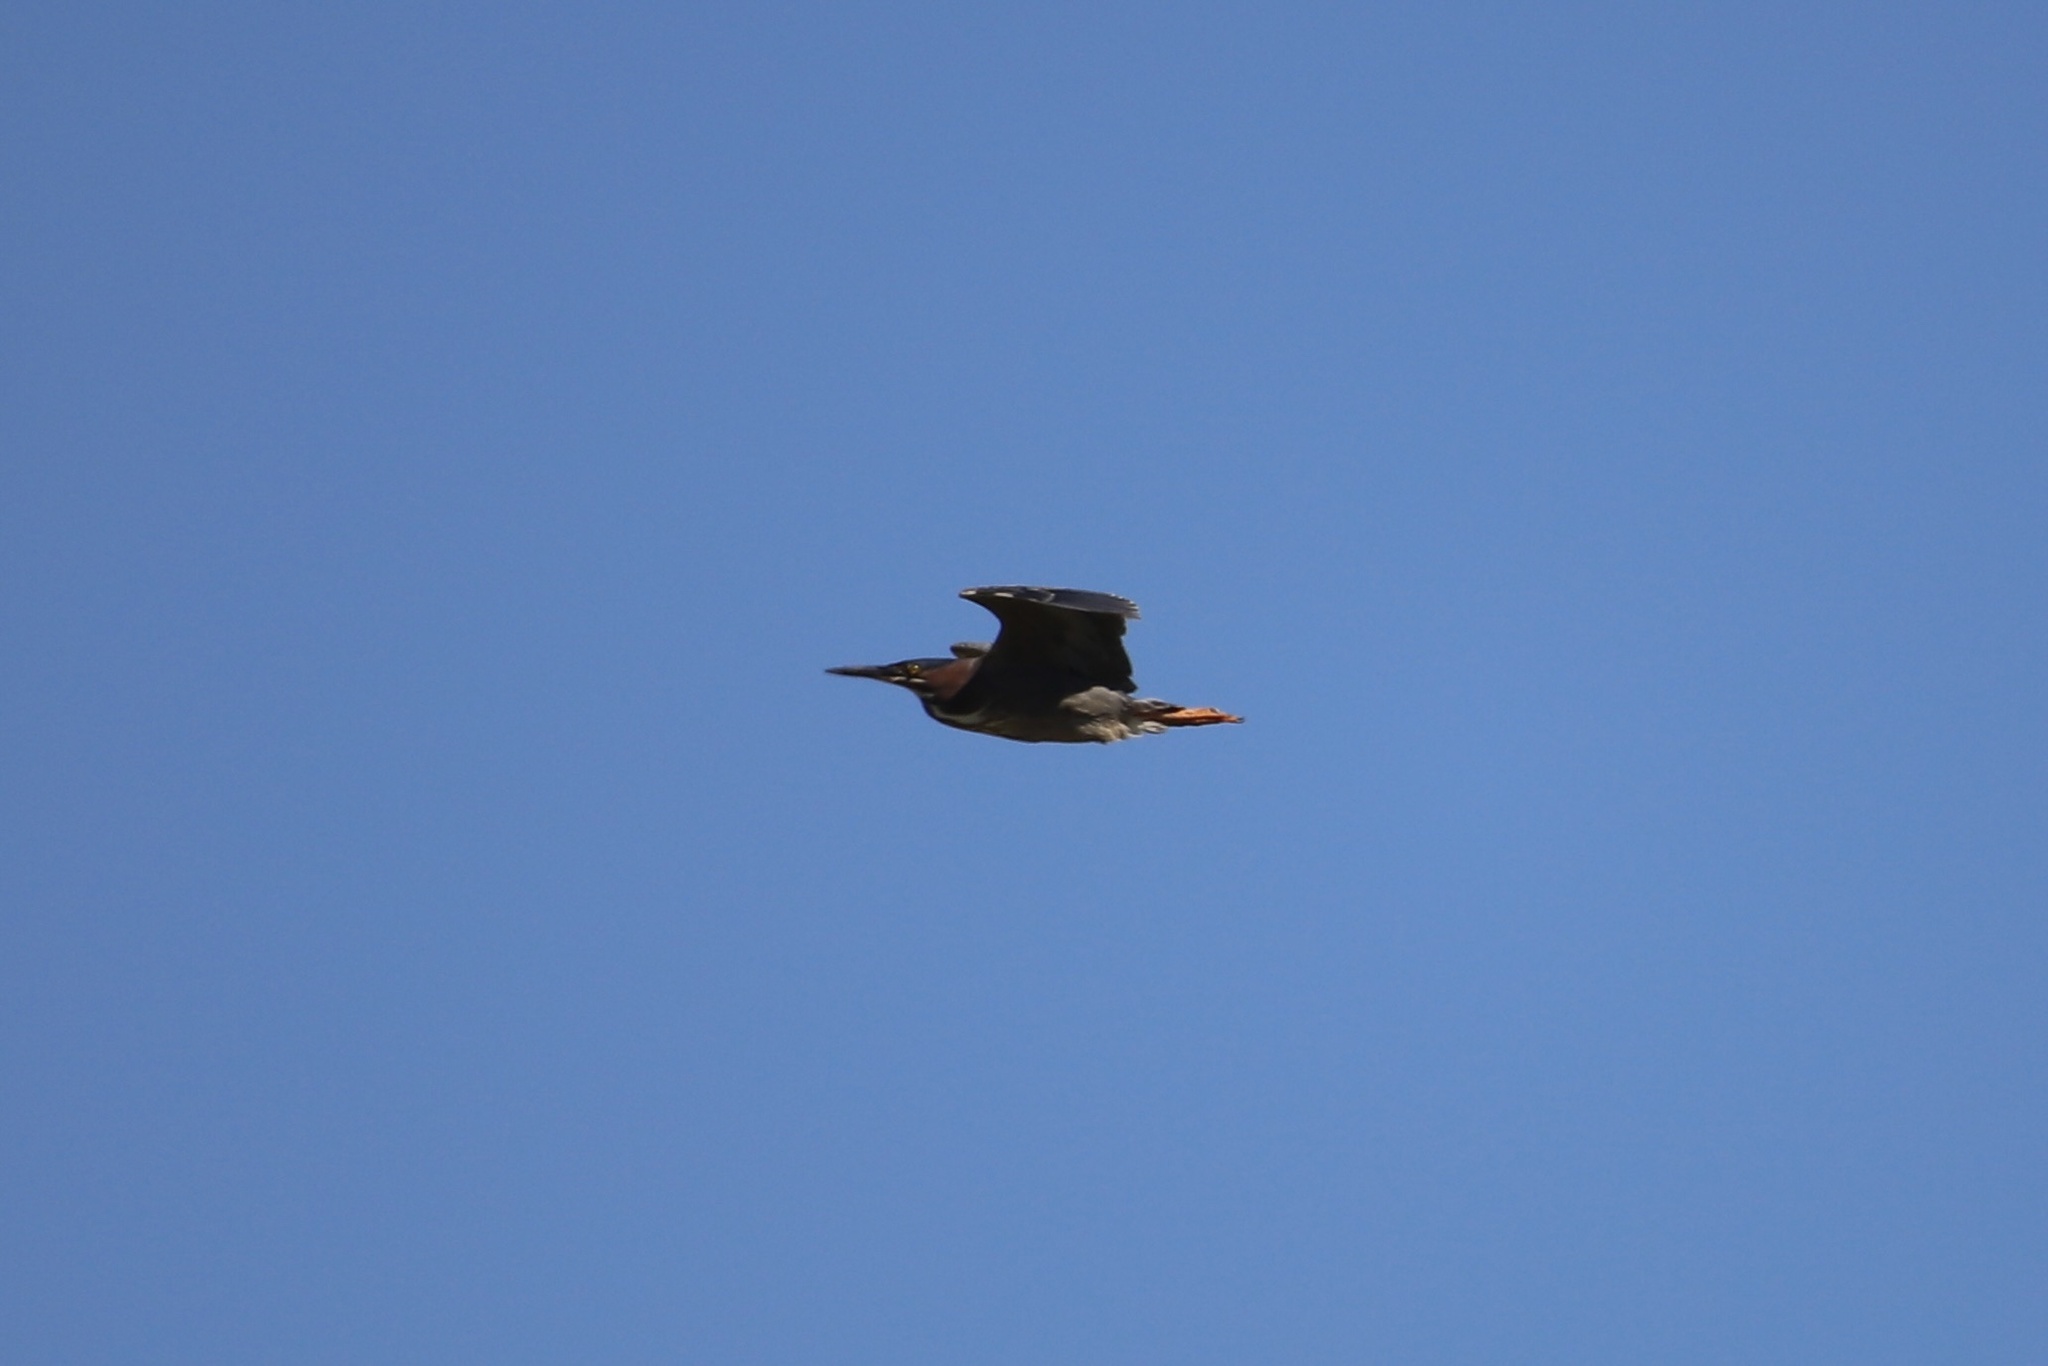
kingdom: Animalia
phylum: Chordata
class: Aves
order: Pelecaniformes
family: Ardeidae
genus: Butorides
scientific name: Butorides virescens
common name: Green heron
